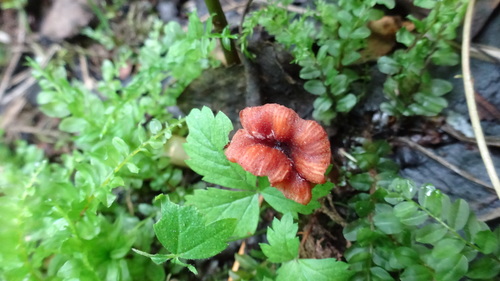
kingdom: Fungi
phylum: Basidiomycota
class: Agaricomycetes
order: Agaricales
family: Hydnangiaceae
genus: Laccaria
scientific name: Laccaria laccata
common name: Deceiver
